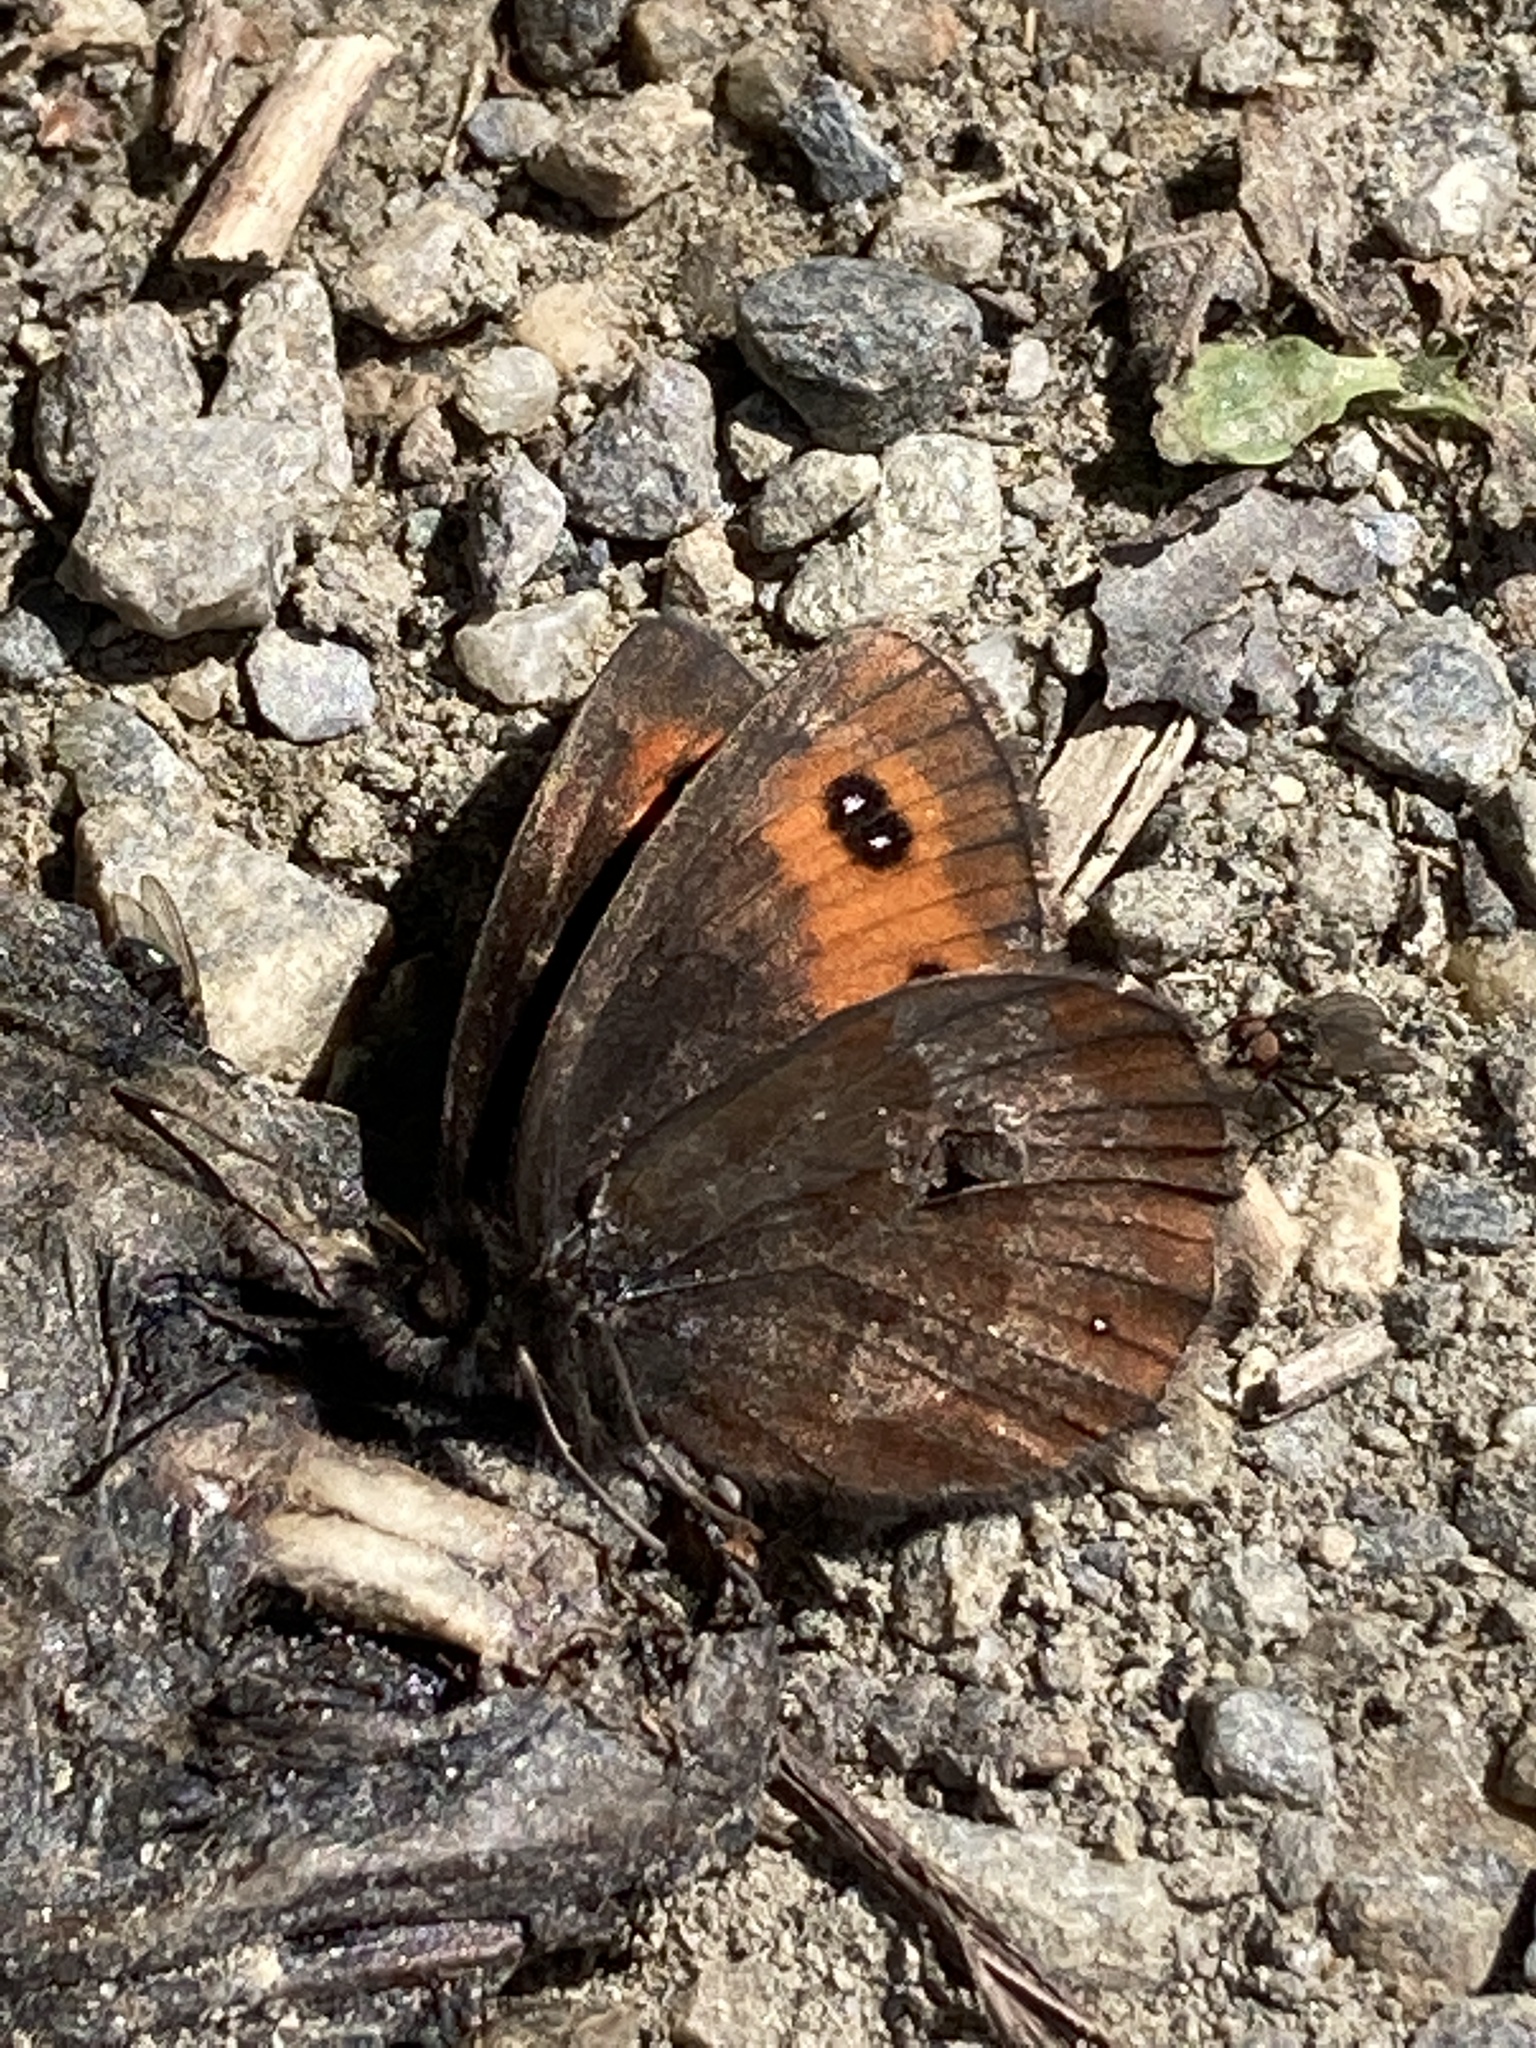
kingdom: Animalia
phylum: Arthropoda
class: Insecta
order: Lepidoptera
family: Nymphalidae
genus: Erebia
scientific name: Erebia aethiops
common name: Scotch argus
